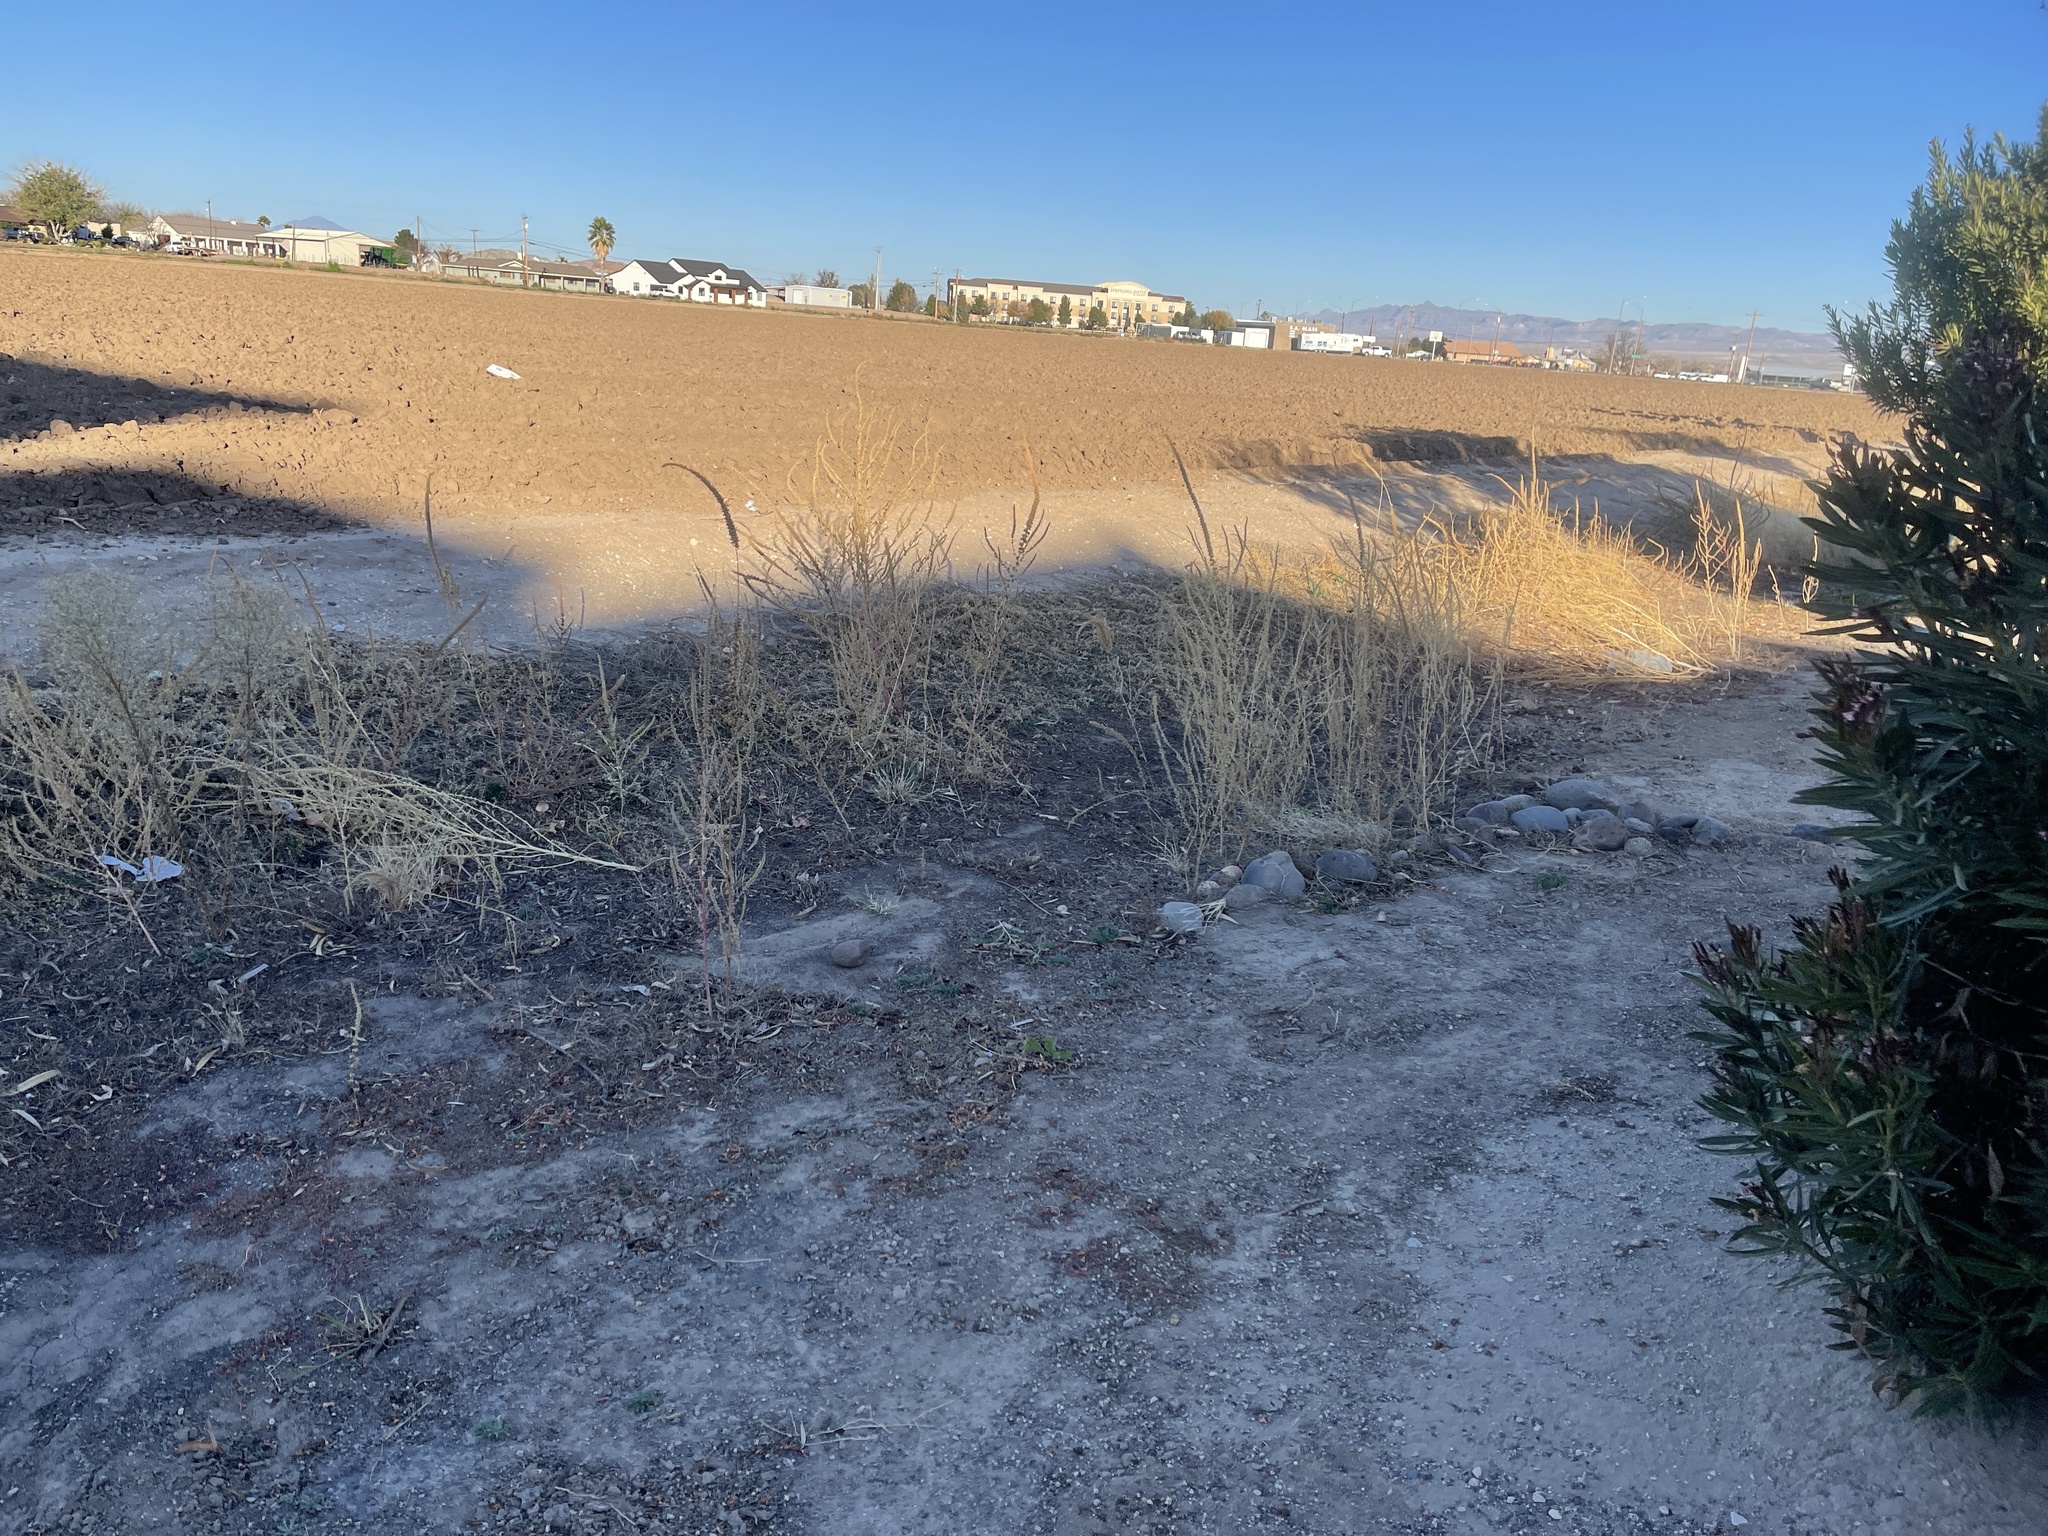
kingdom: Plantae
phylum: Tracheophyta
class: Magnoliopsida
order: Caryophyllales
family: Amaranthaceae
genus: Amaranthus
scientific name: Amaranthus fimbriatus
